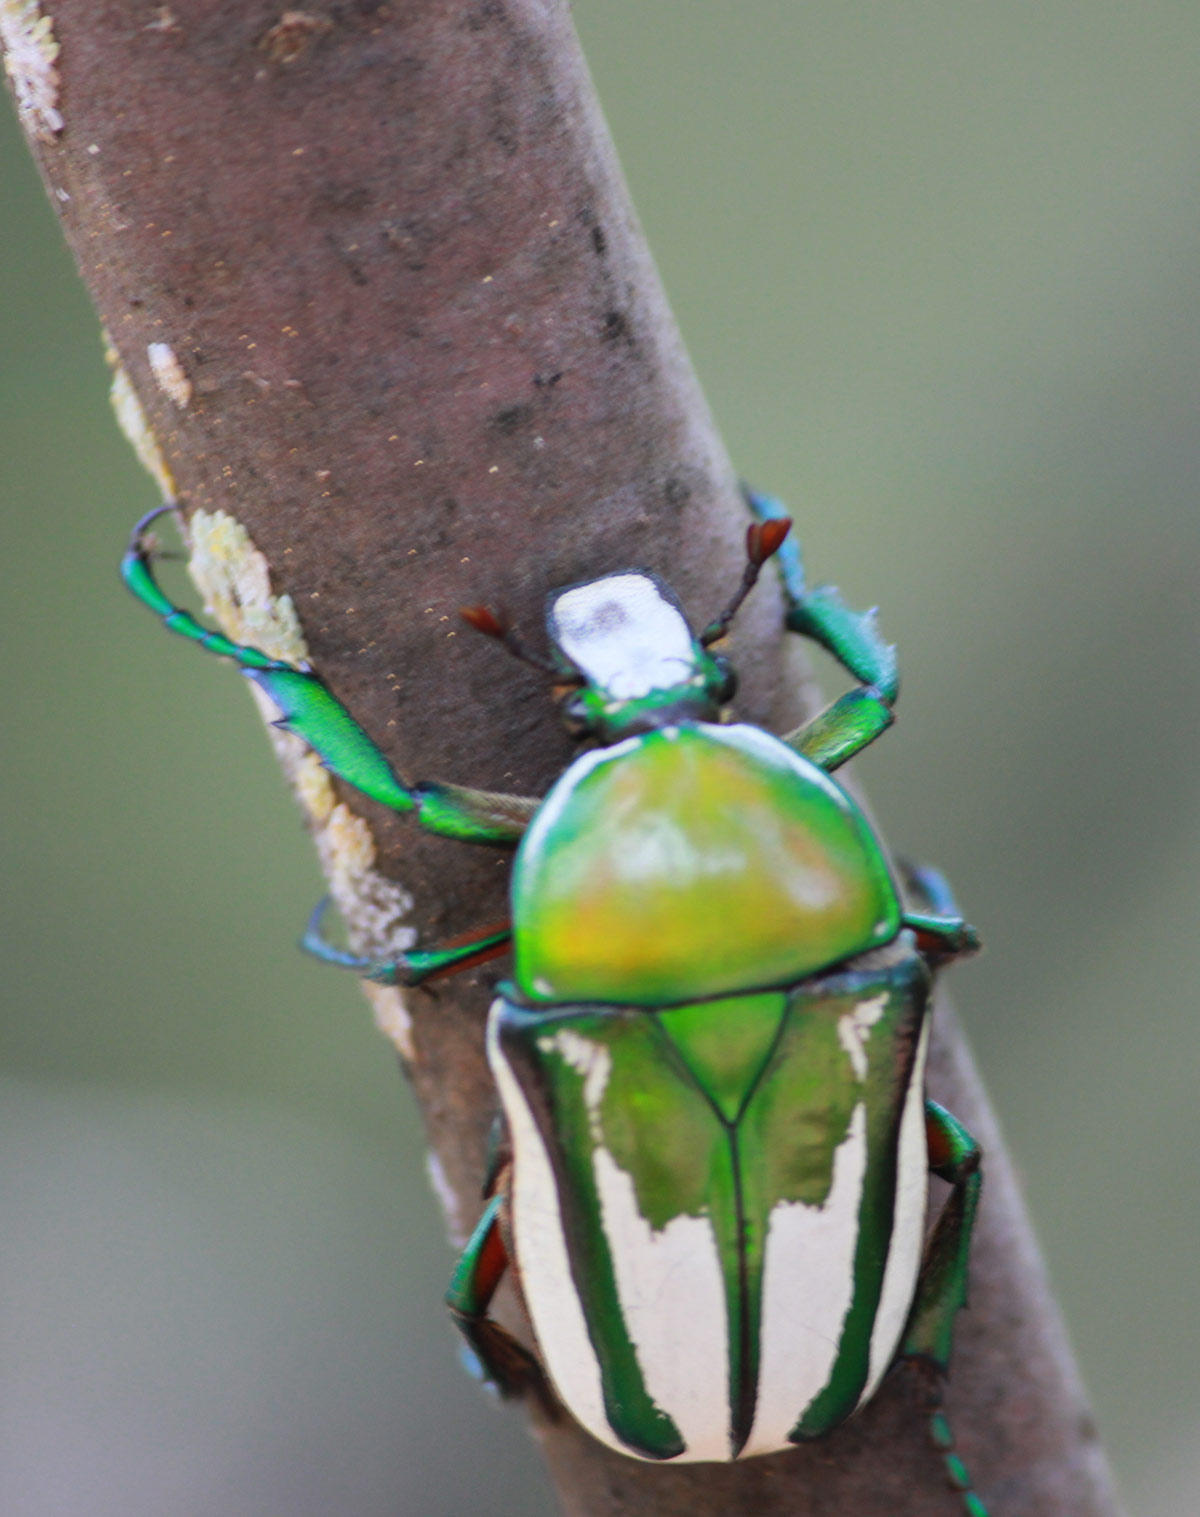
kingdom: Animalia
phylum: Arthropoda
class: Insecta
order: Coleoptera
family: Scarabaeidae
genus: Rhamphorrhina
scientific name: Rhamphorrhina splendens
